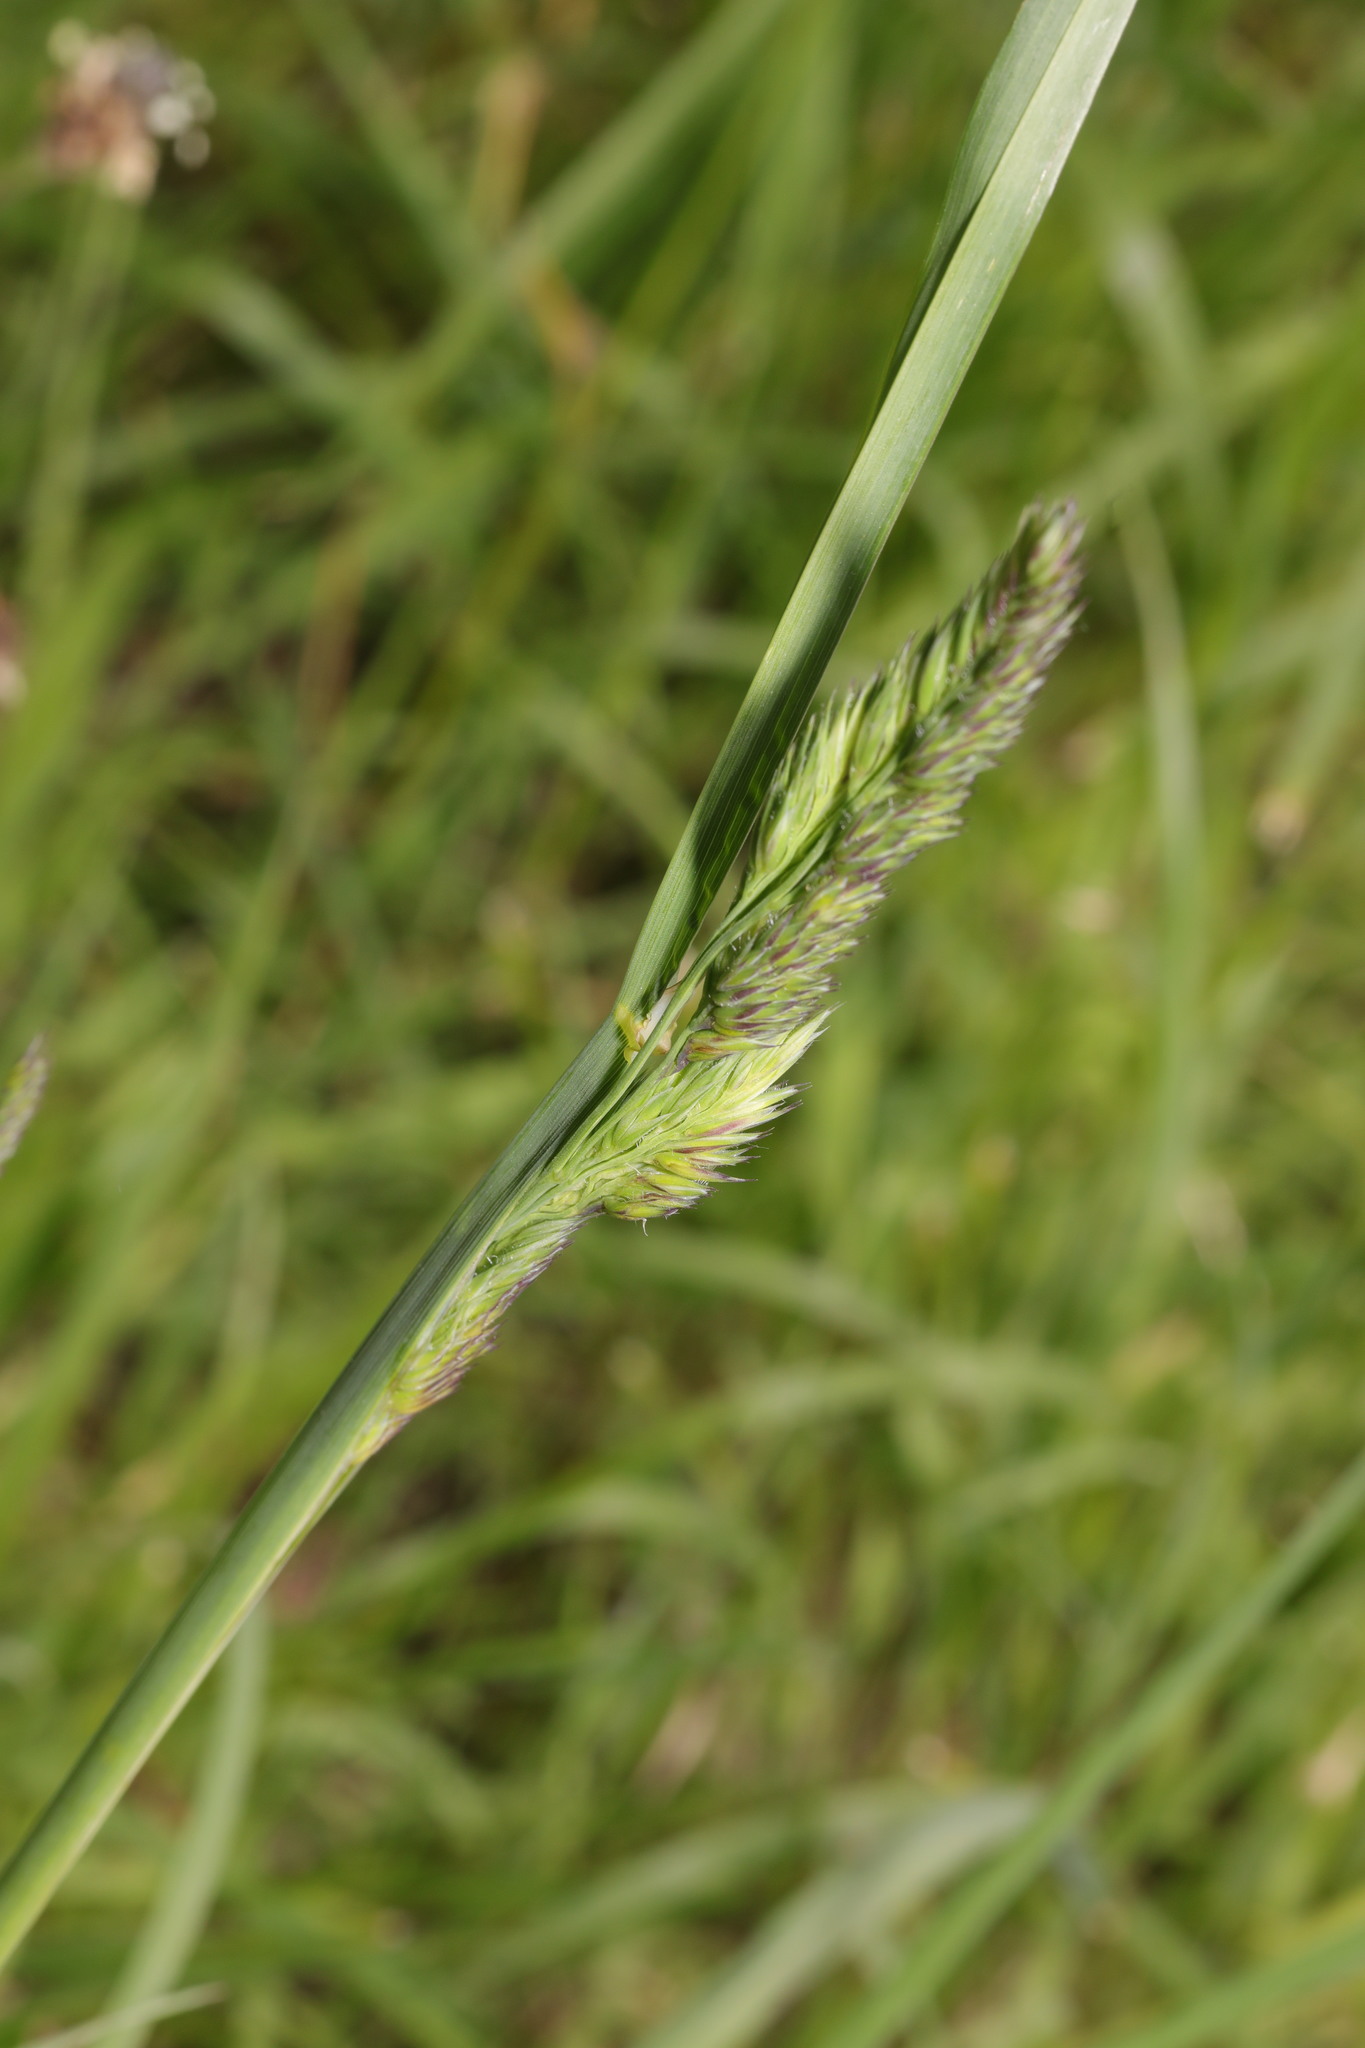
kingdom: Plantae
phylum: Tracheophyta
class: Liliopsida
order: Poales
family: Poaceae
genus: Dactylis
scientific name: Dactylis glomerata
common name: Orchardgrass
